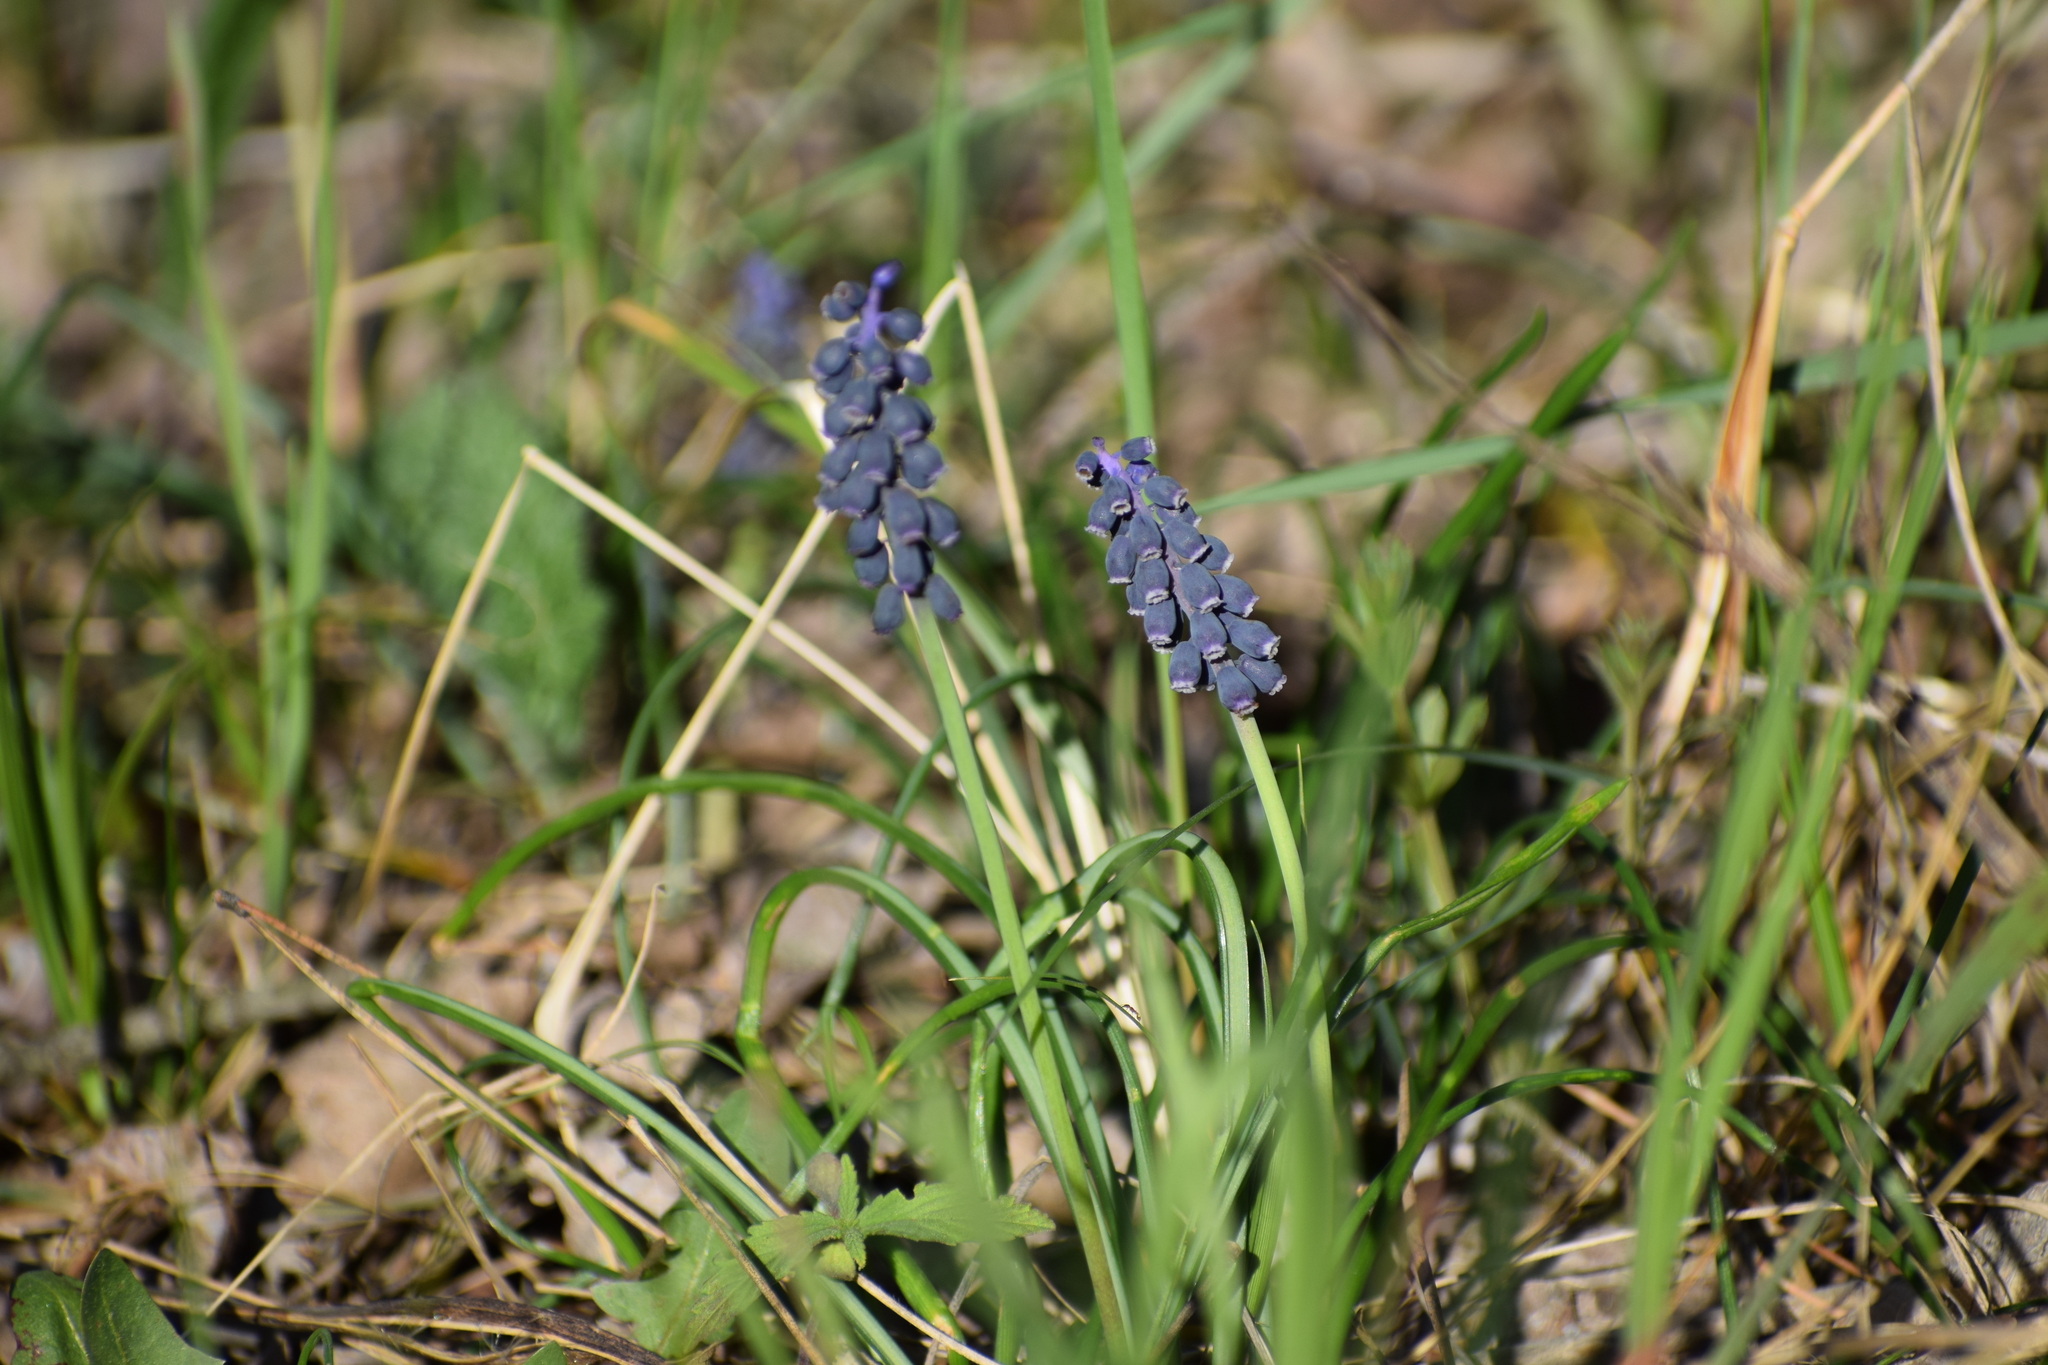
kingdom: Plantae
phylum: Tracheophyta
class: Liliopsida
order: Asparagales
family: Asparagaceae
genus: Muscari
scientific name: Muscari botryoides
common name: Compact grape-hyacinth
